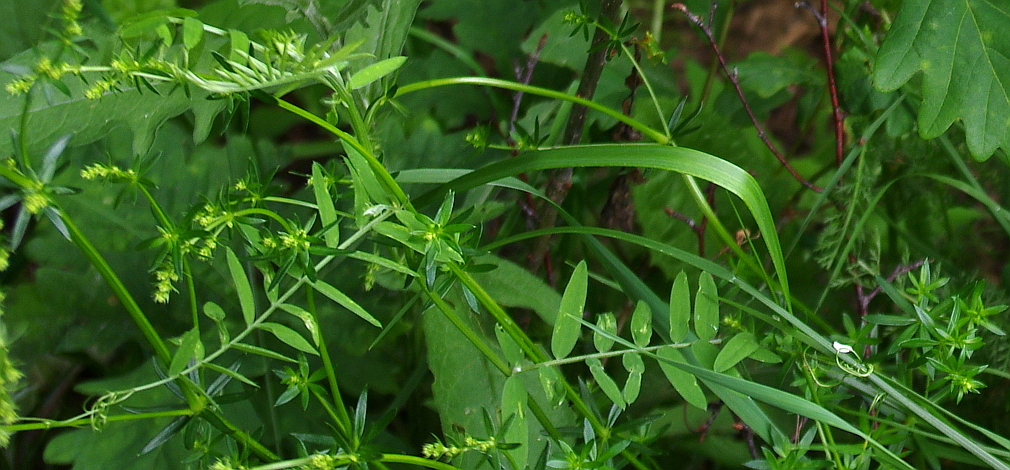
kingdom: Plantae
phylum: Tracheophyta
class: Magnoliopsida
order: Fabales
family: Fabaceae
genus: Vicia
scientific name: Vicia cracca
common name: Bird vetch
